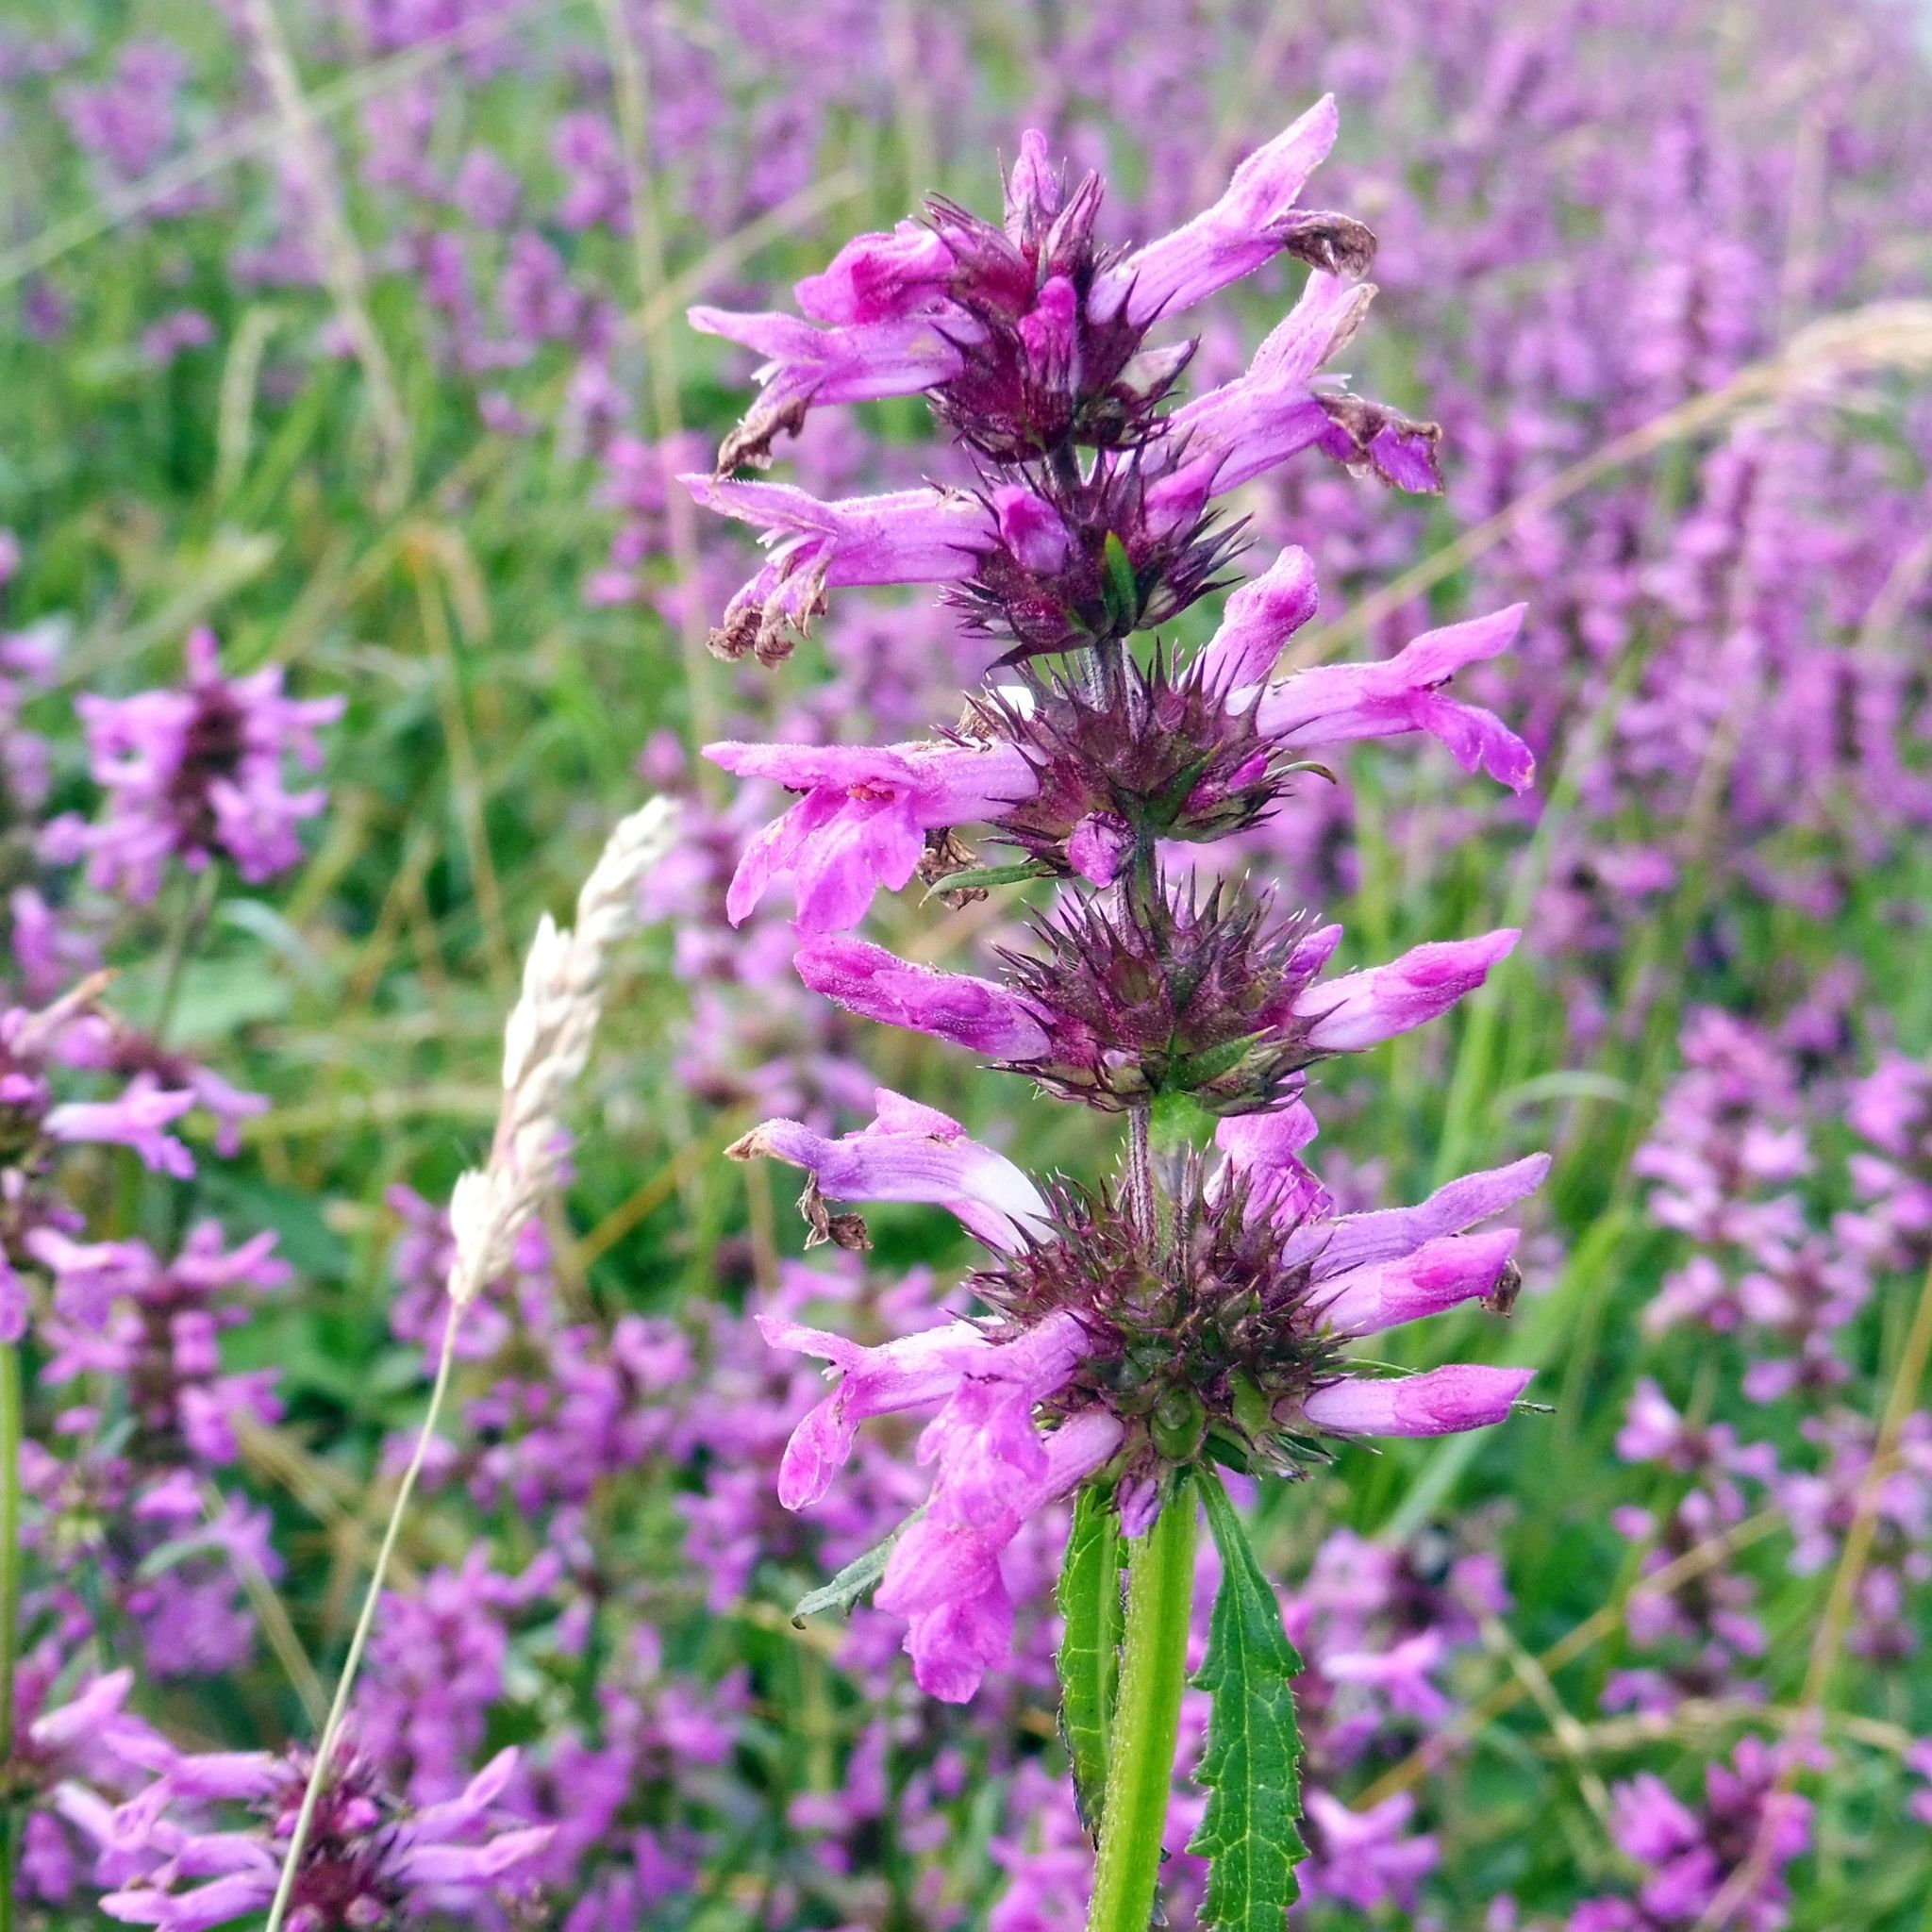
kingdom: Plantae
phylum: Tracheophyta
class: Magnoliopsida
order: Lamiales
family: Lamiaceae
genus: Betonica
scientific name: Betonica officinalis
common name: Bishop's-wort
